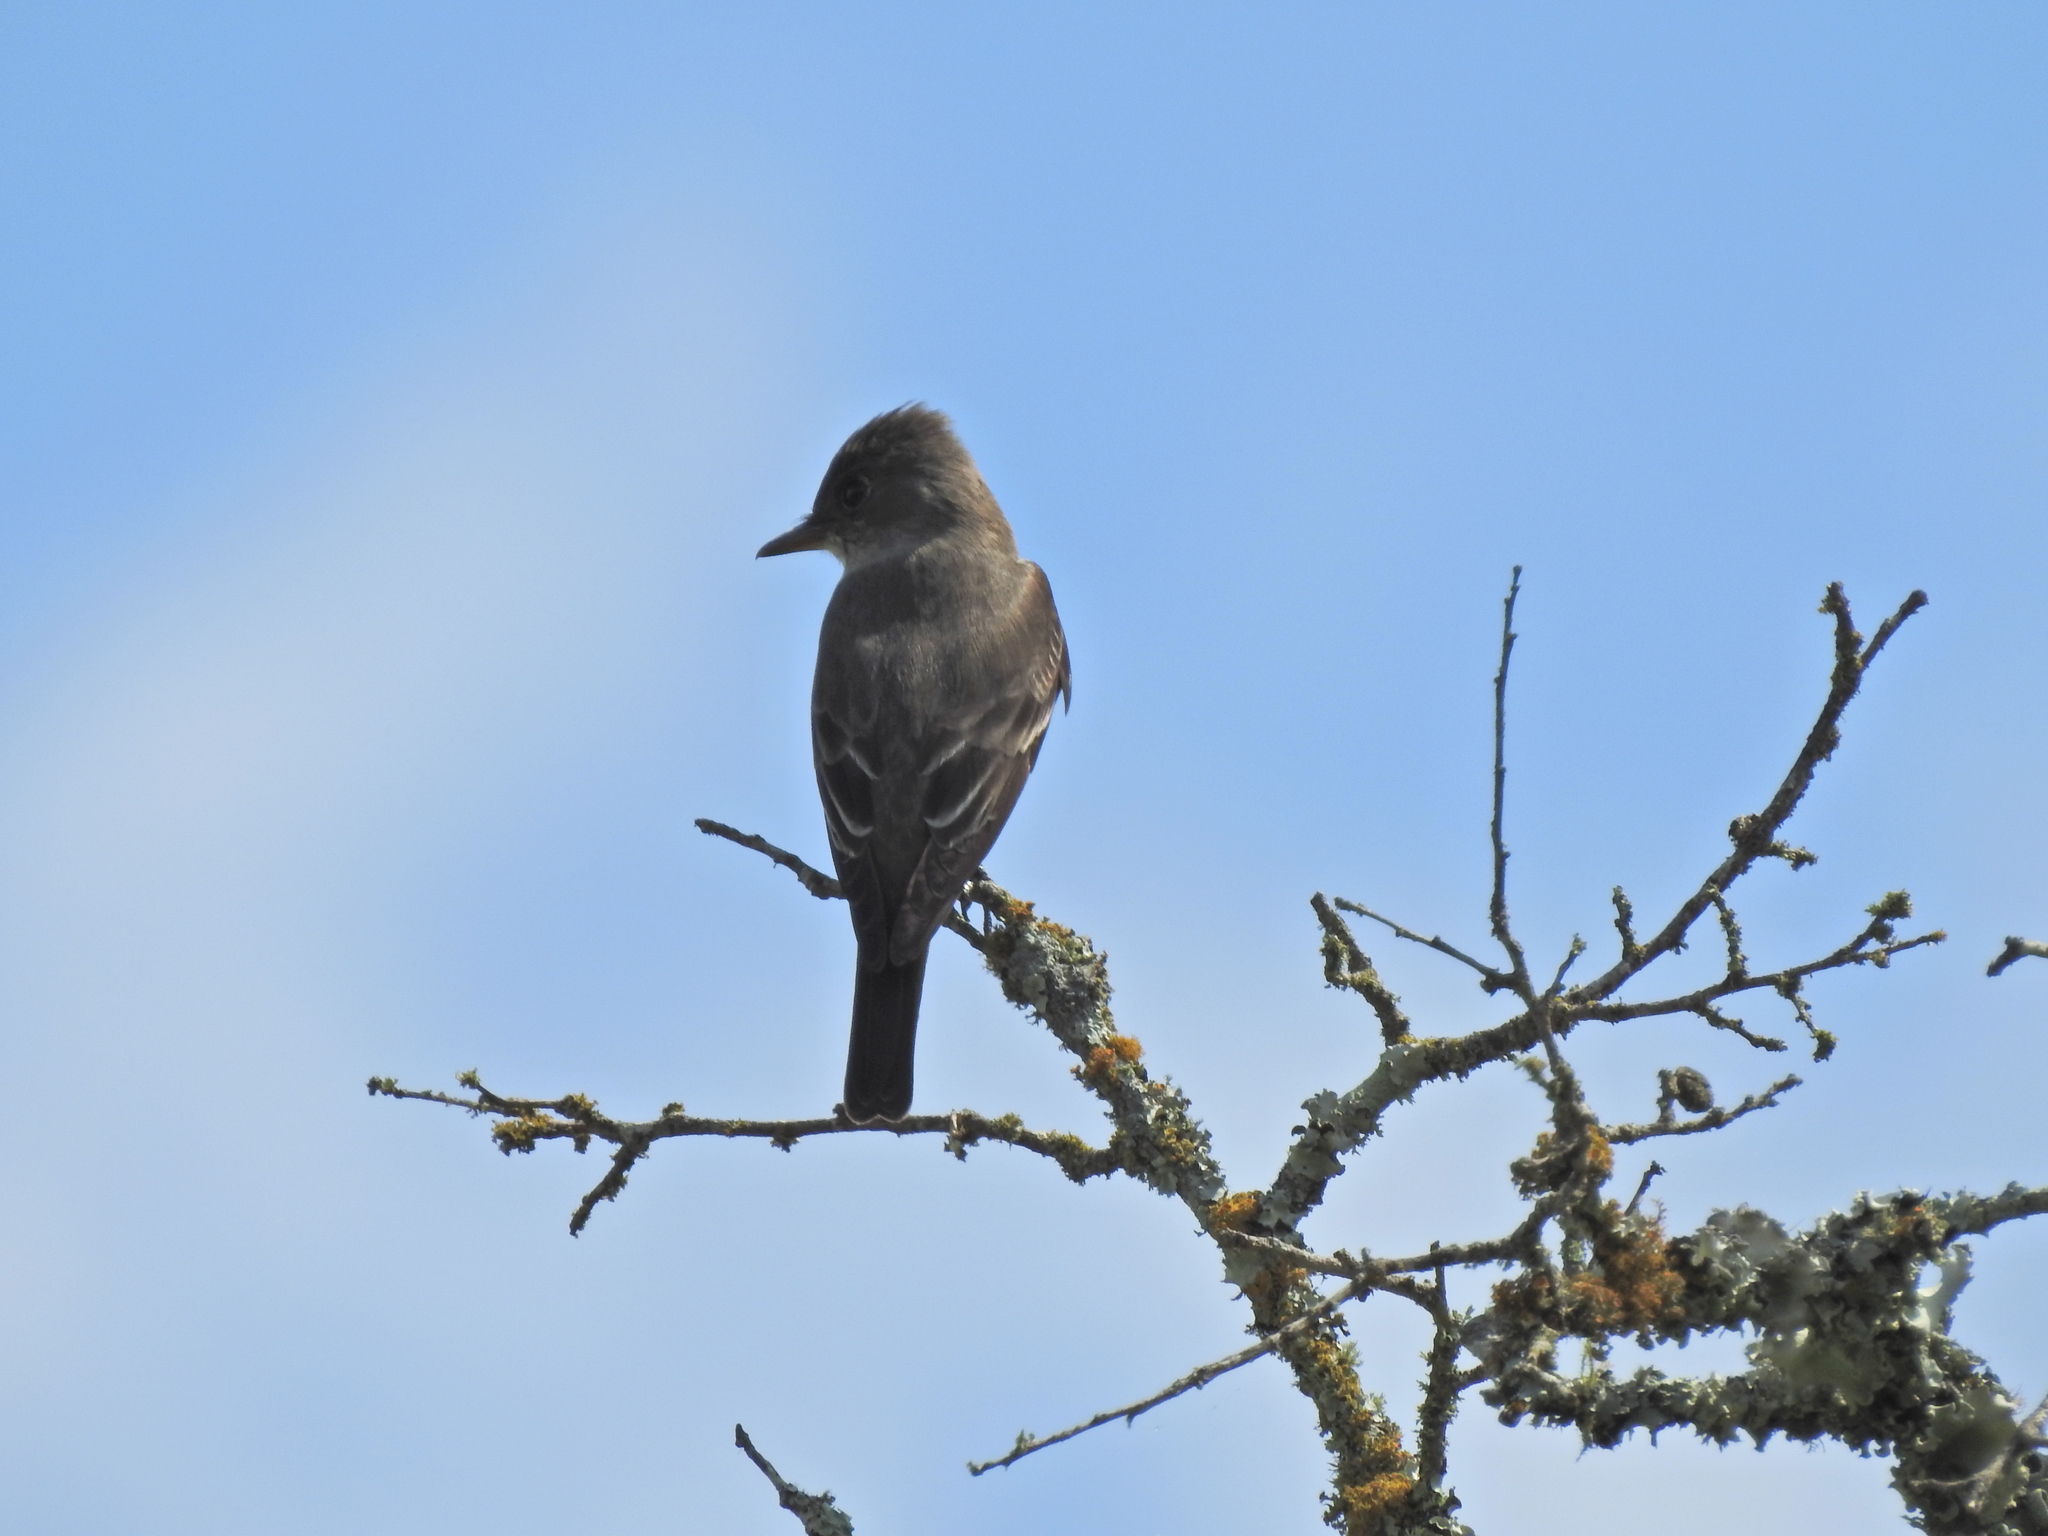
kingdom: Animalia
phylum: Chordata
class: Aves
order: Passeriformes
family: Tyrannidae
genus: Contopus
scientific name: Contopus cooperi
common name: Olive-sided flycatcher
